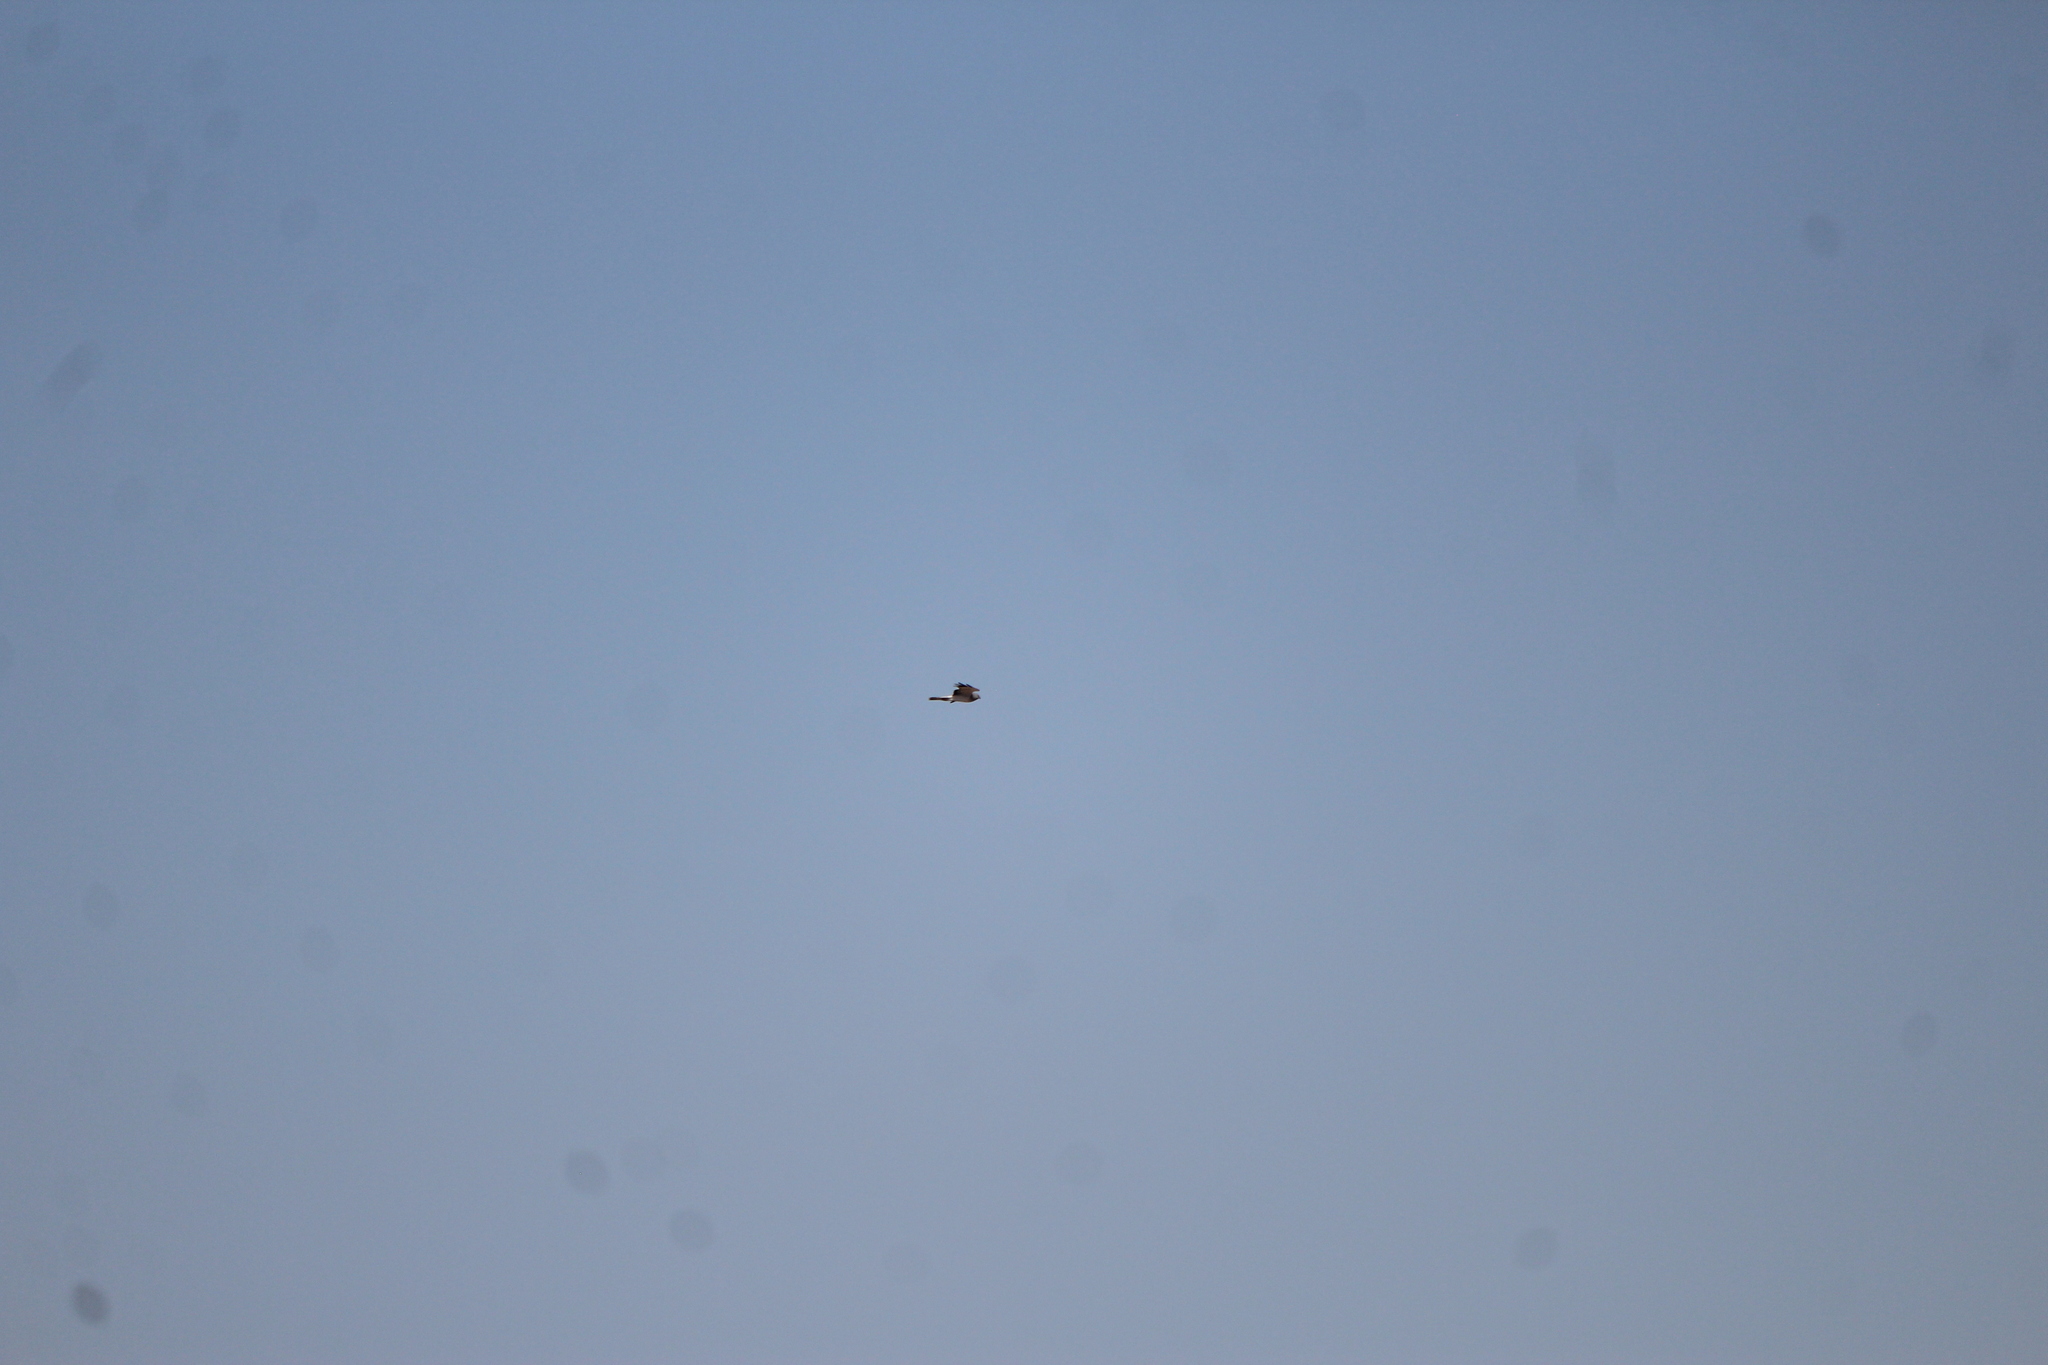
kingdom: Animalia
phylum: Chordata
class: Aves
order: Accipitriformes
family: Accipitridae
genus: Circus
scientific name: Circus cyaneus
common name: Hen harrier
